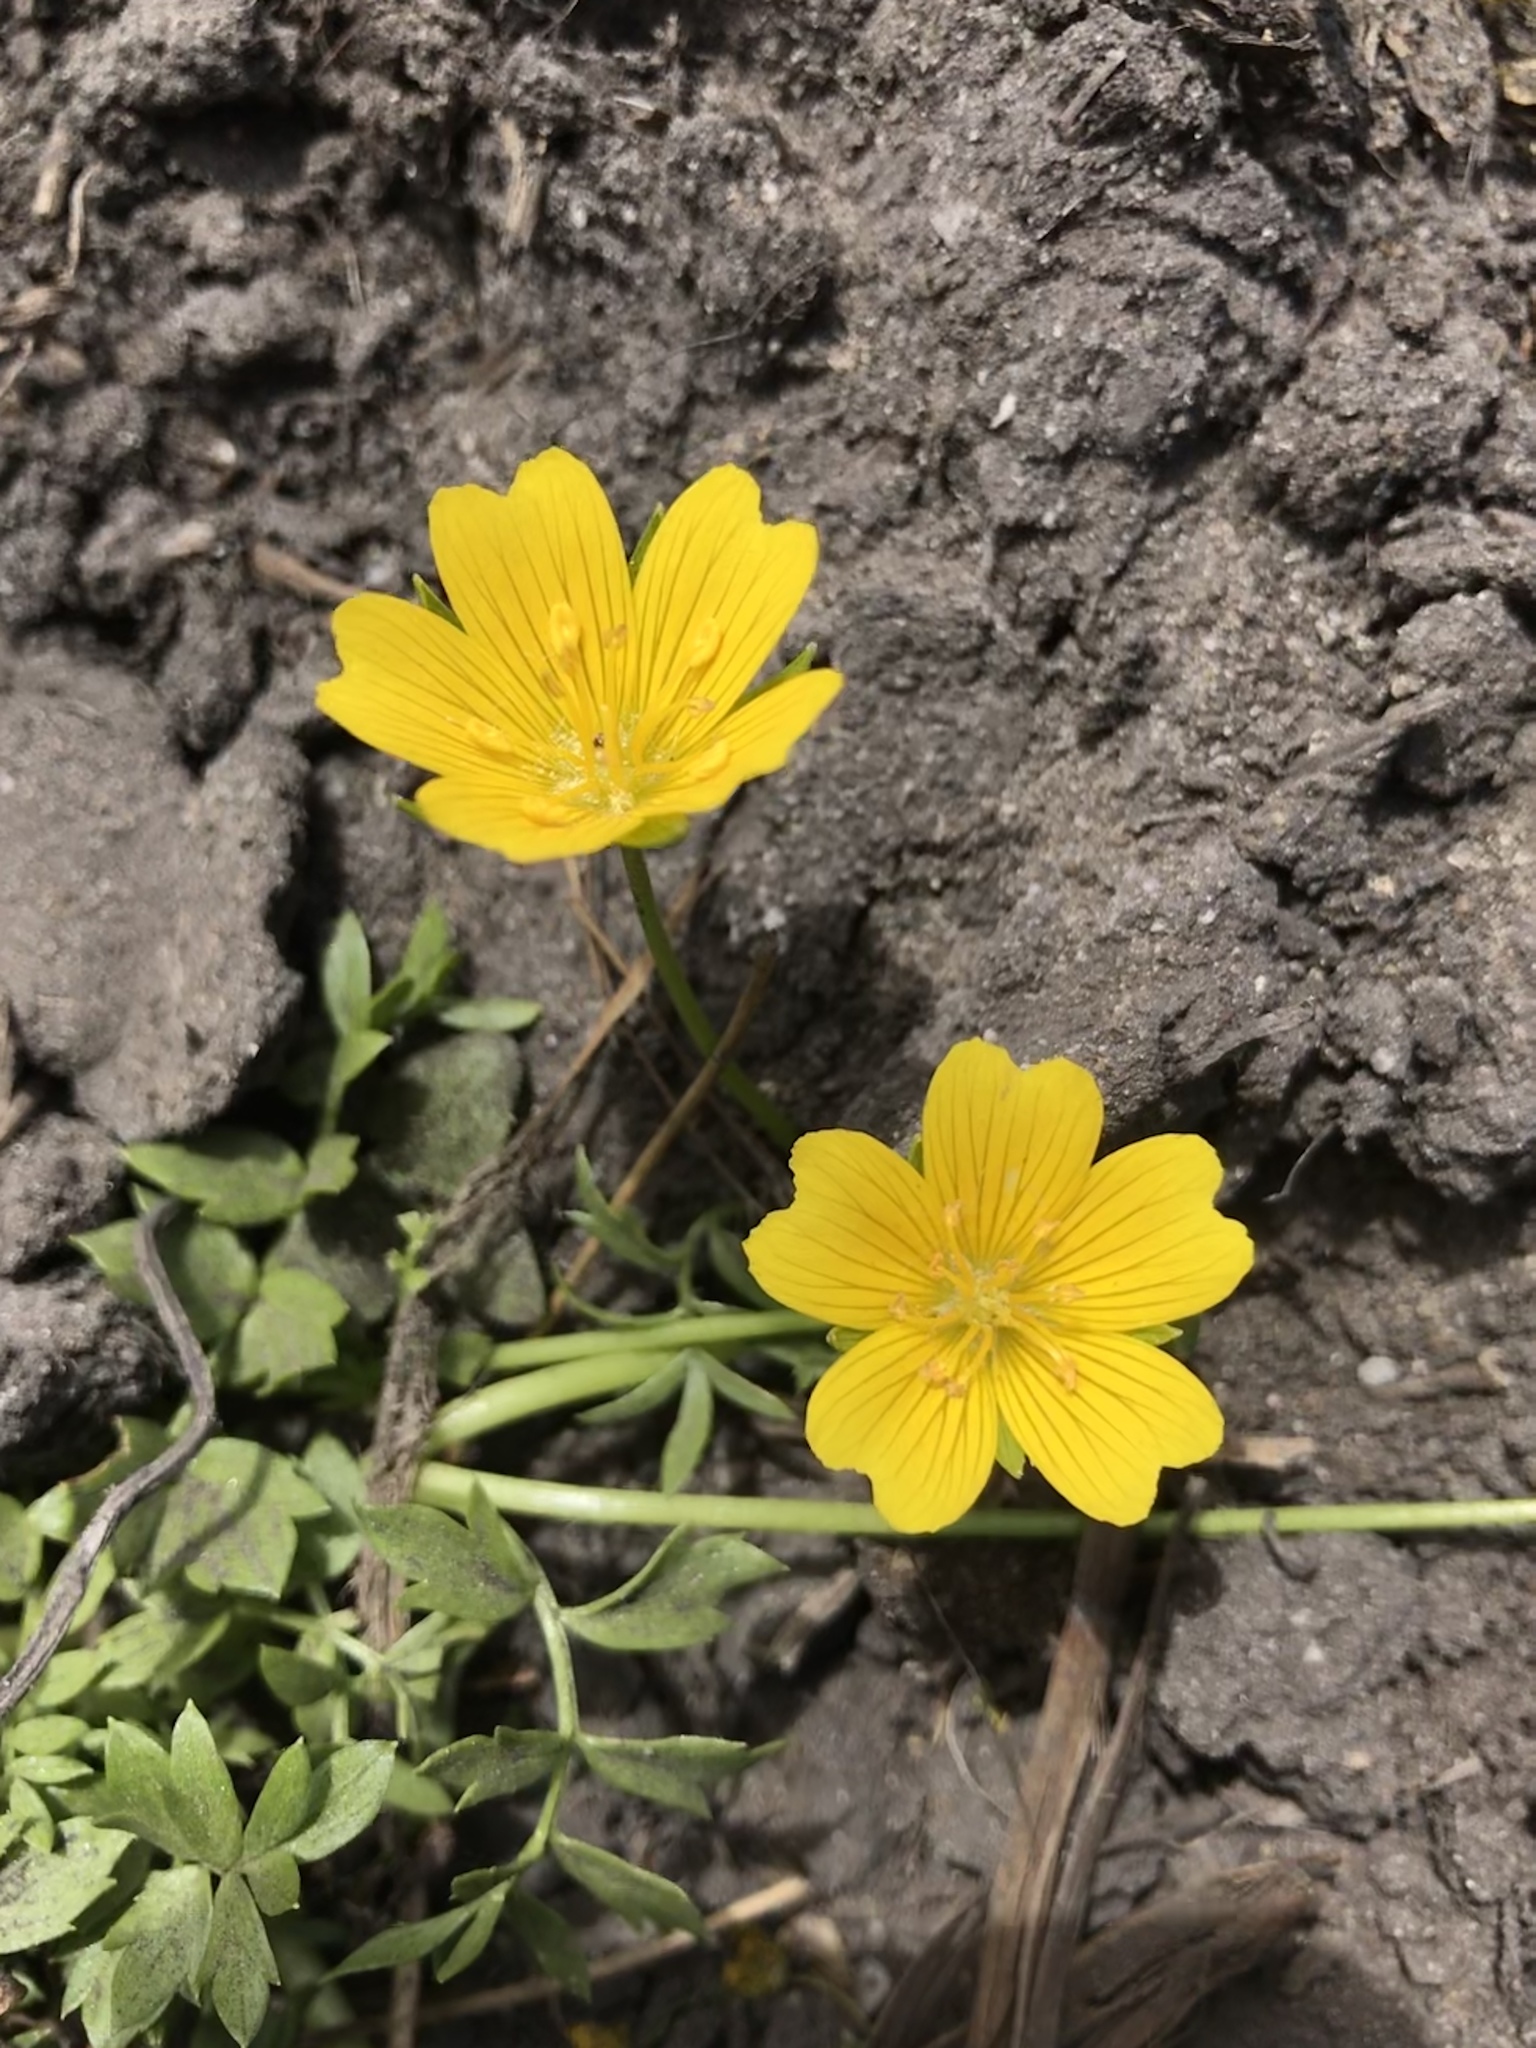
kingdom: Plantae
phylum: Tracheophyta
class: Magnoliopsida
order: Brassicales
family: Limnanthaceae
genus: Limnanthes
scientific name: Limnanthes douglasii
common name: Meadow-foam
